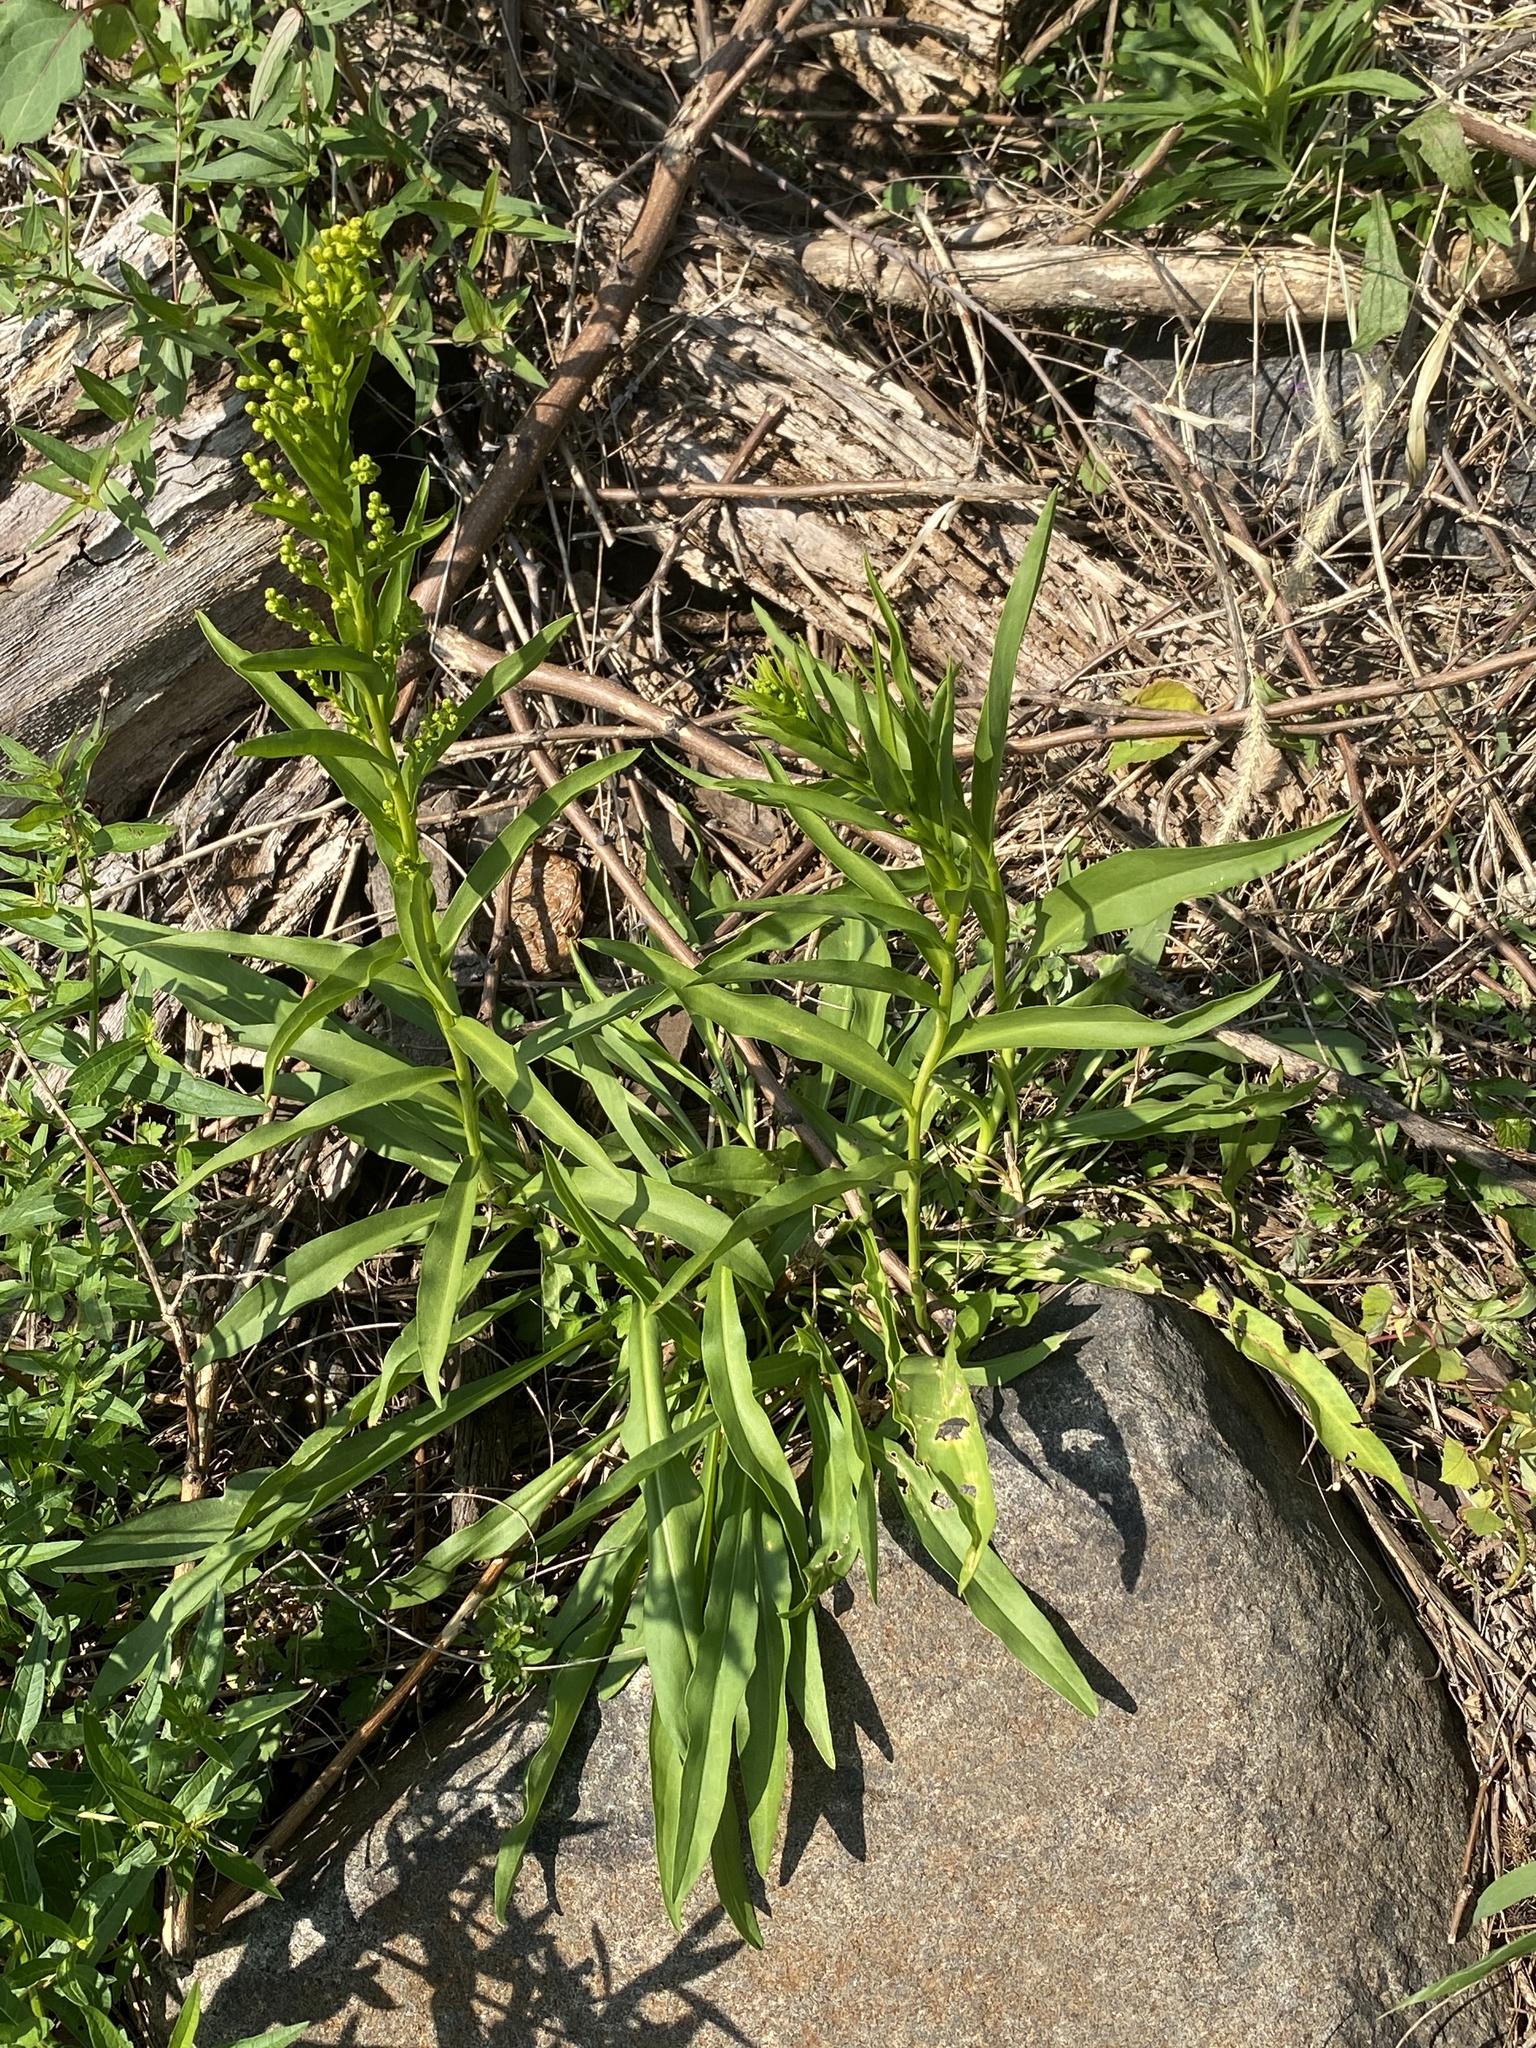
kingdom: Plantae
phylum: Tracheophyta
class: Magnoliopsida
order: Asterales
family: Asteraceae
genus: Solidago
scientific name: Solidago sempervirens
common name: Salt-marsh goldenrod
